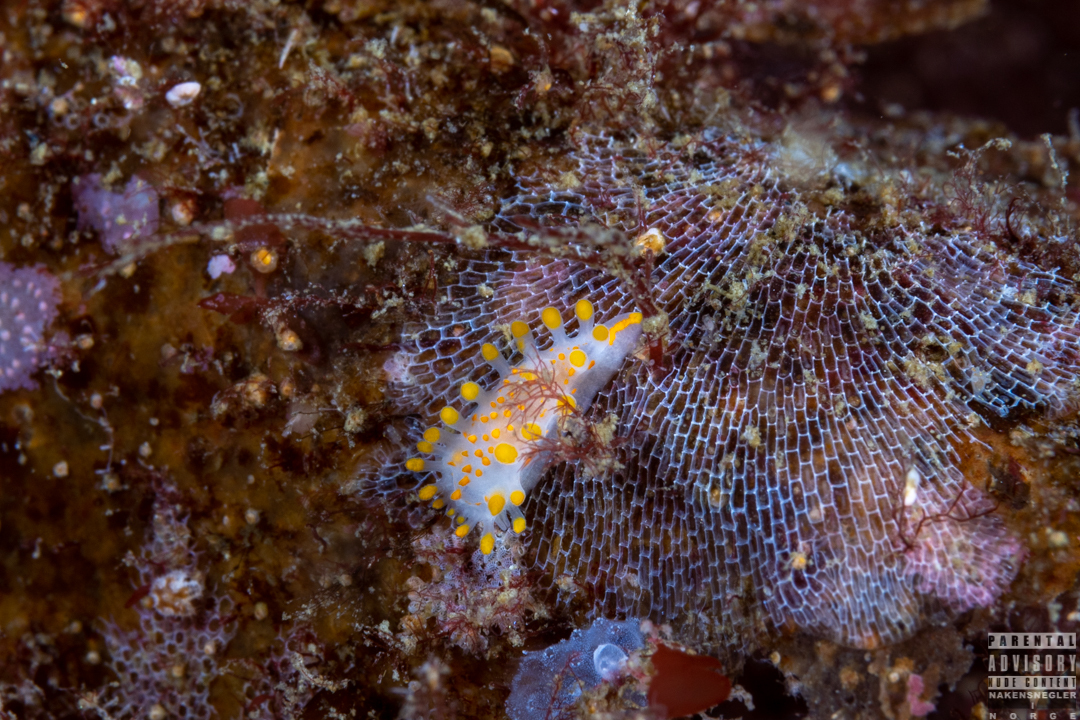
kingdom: Animalia
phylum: Mollusca
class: Gastropoda
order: Nudibranchia
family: Polyceridae
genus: Limacia
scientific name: Limacia clavigera
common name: Orange-clubbed sea slug
